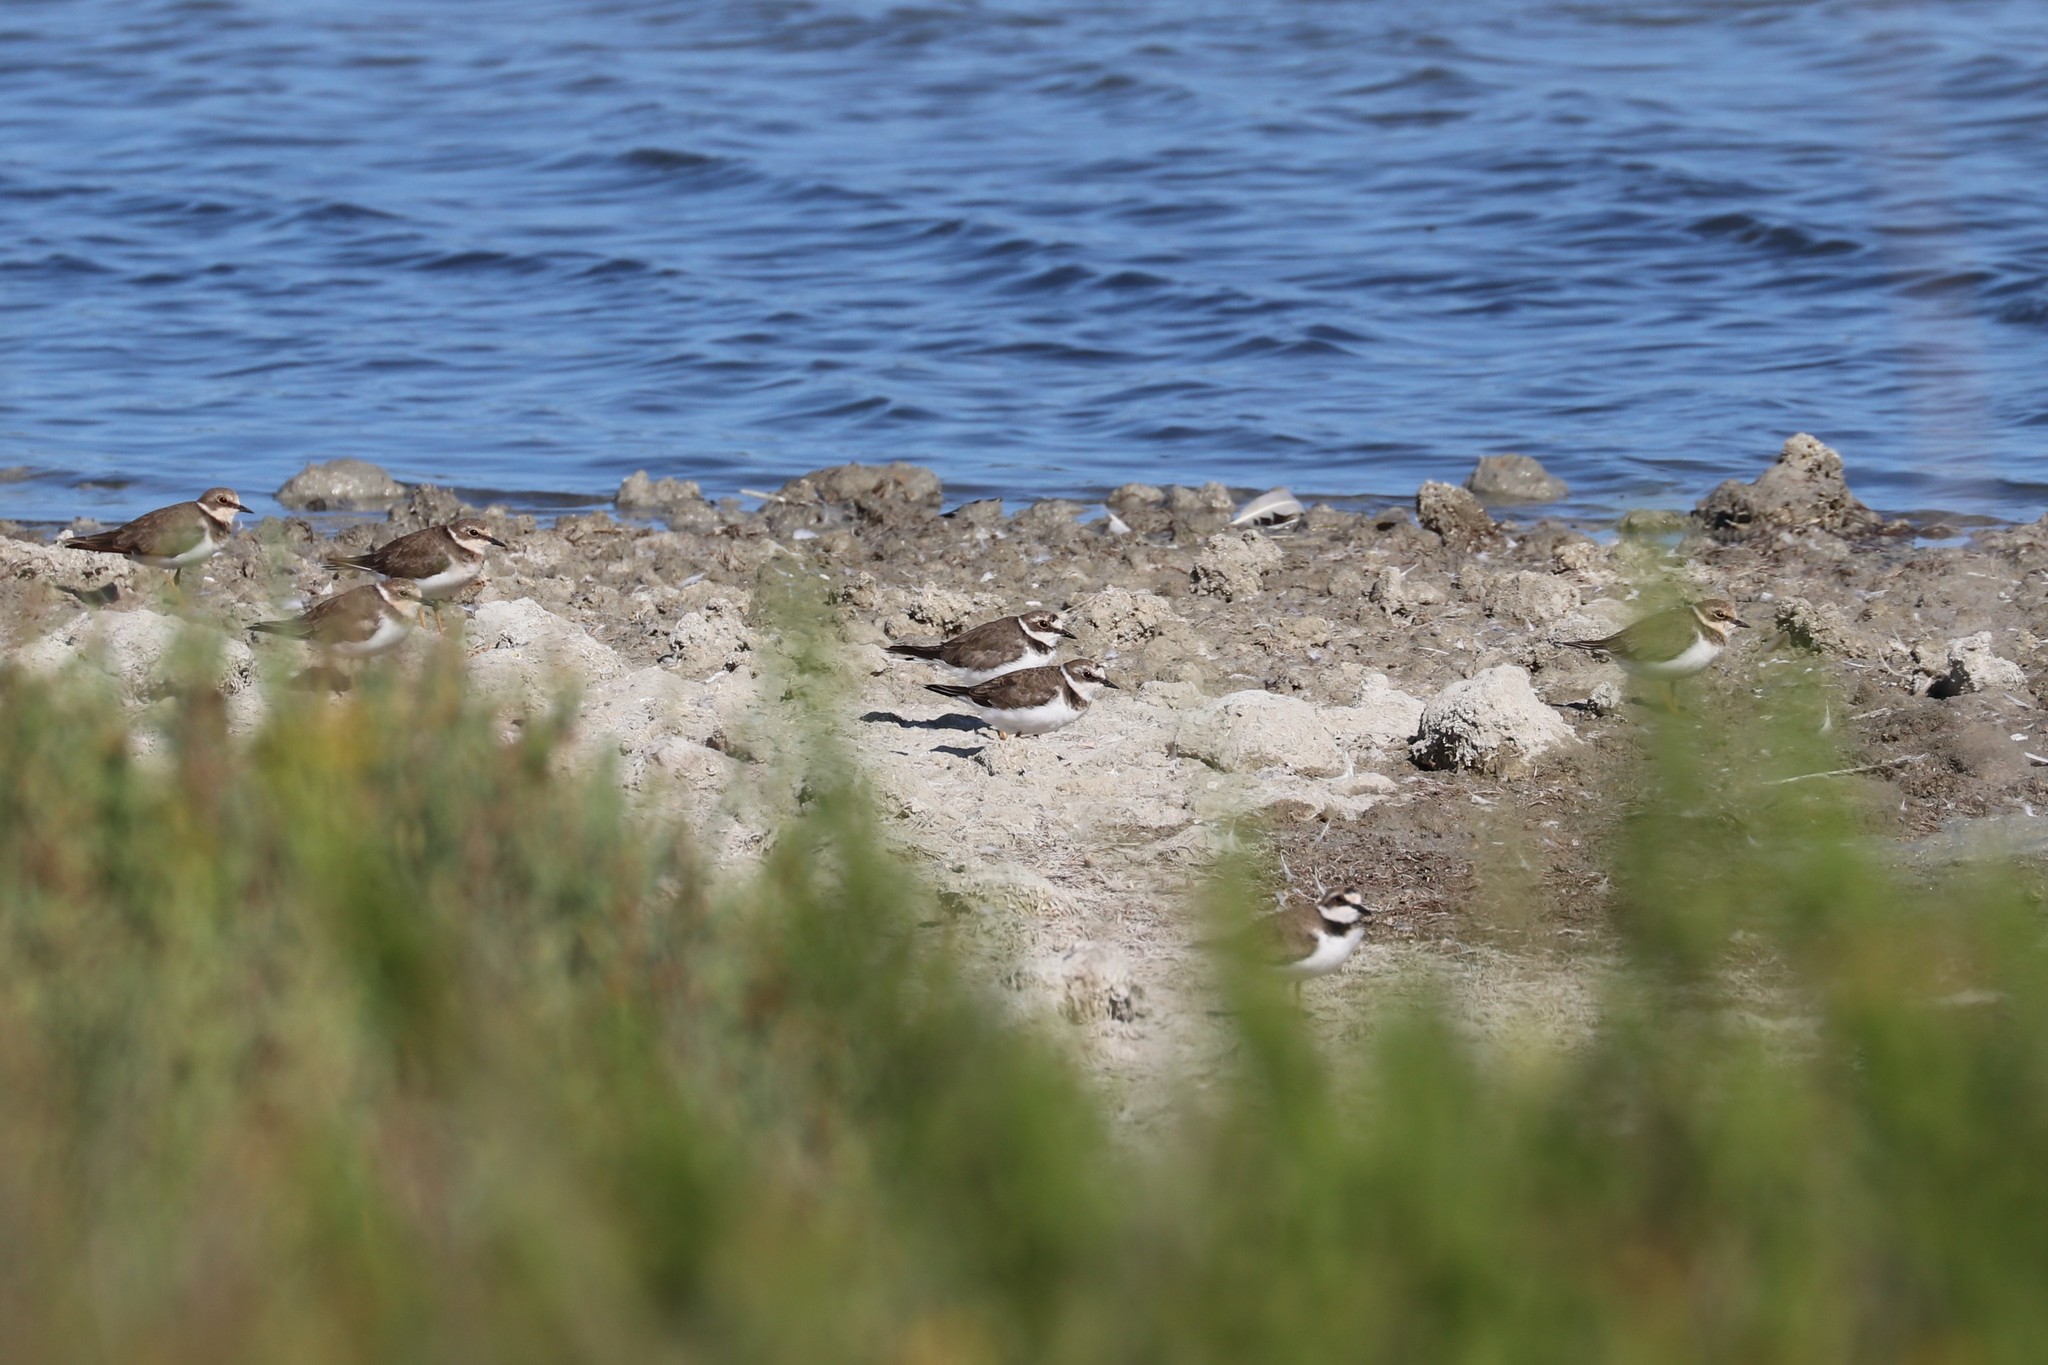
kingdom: Animalia
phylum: Chordata
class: Aves
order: Charadriiformes
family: Charadriidae
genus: Charadrius
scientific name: Charadrius dubius
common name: Little ringed plover
